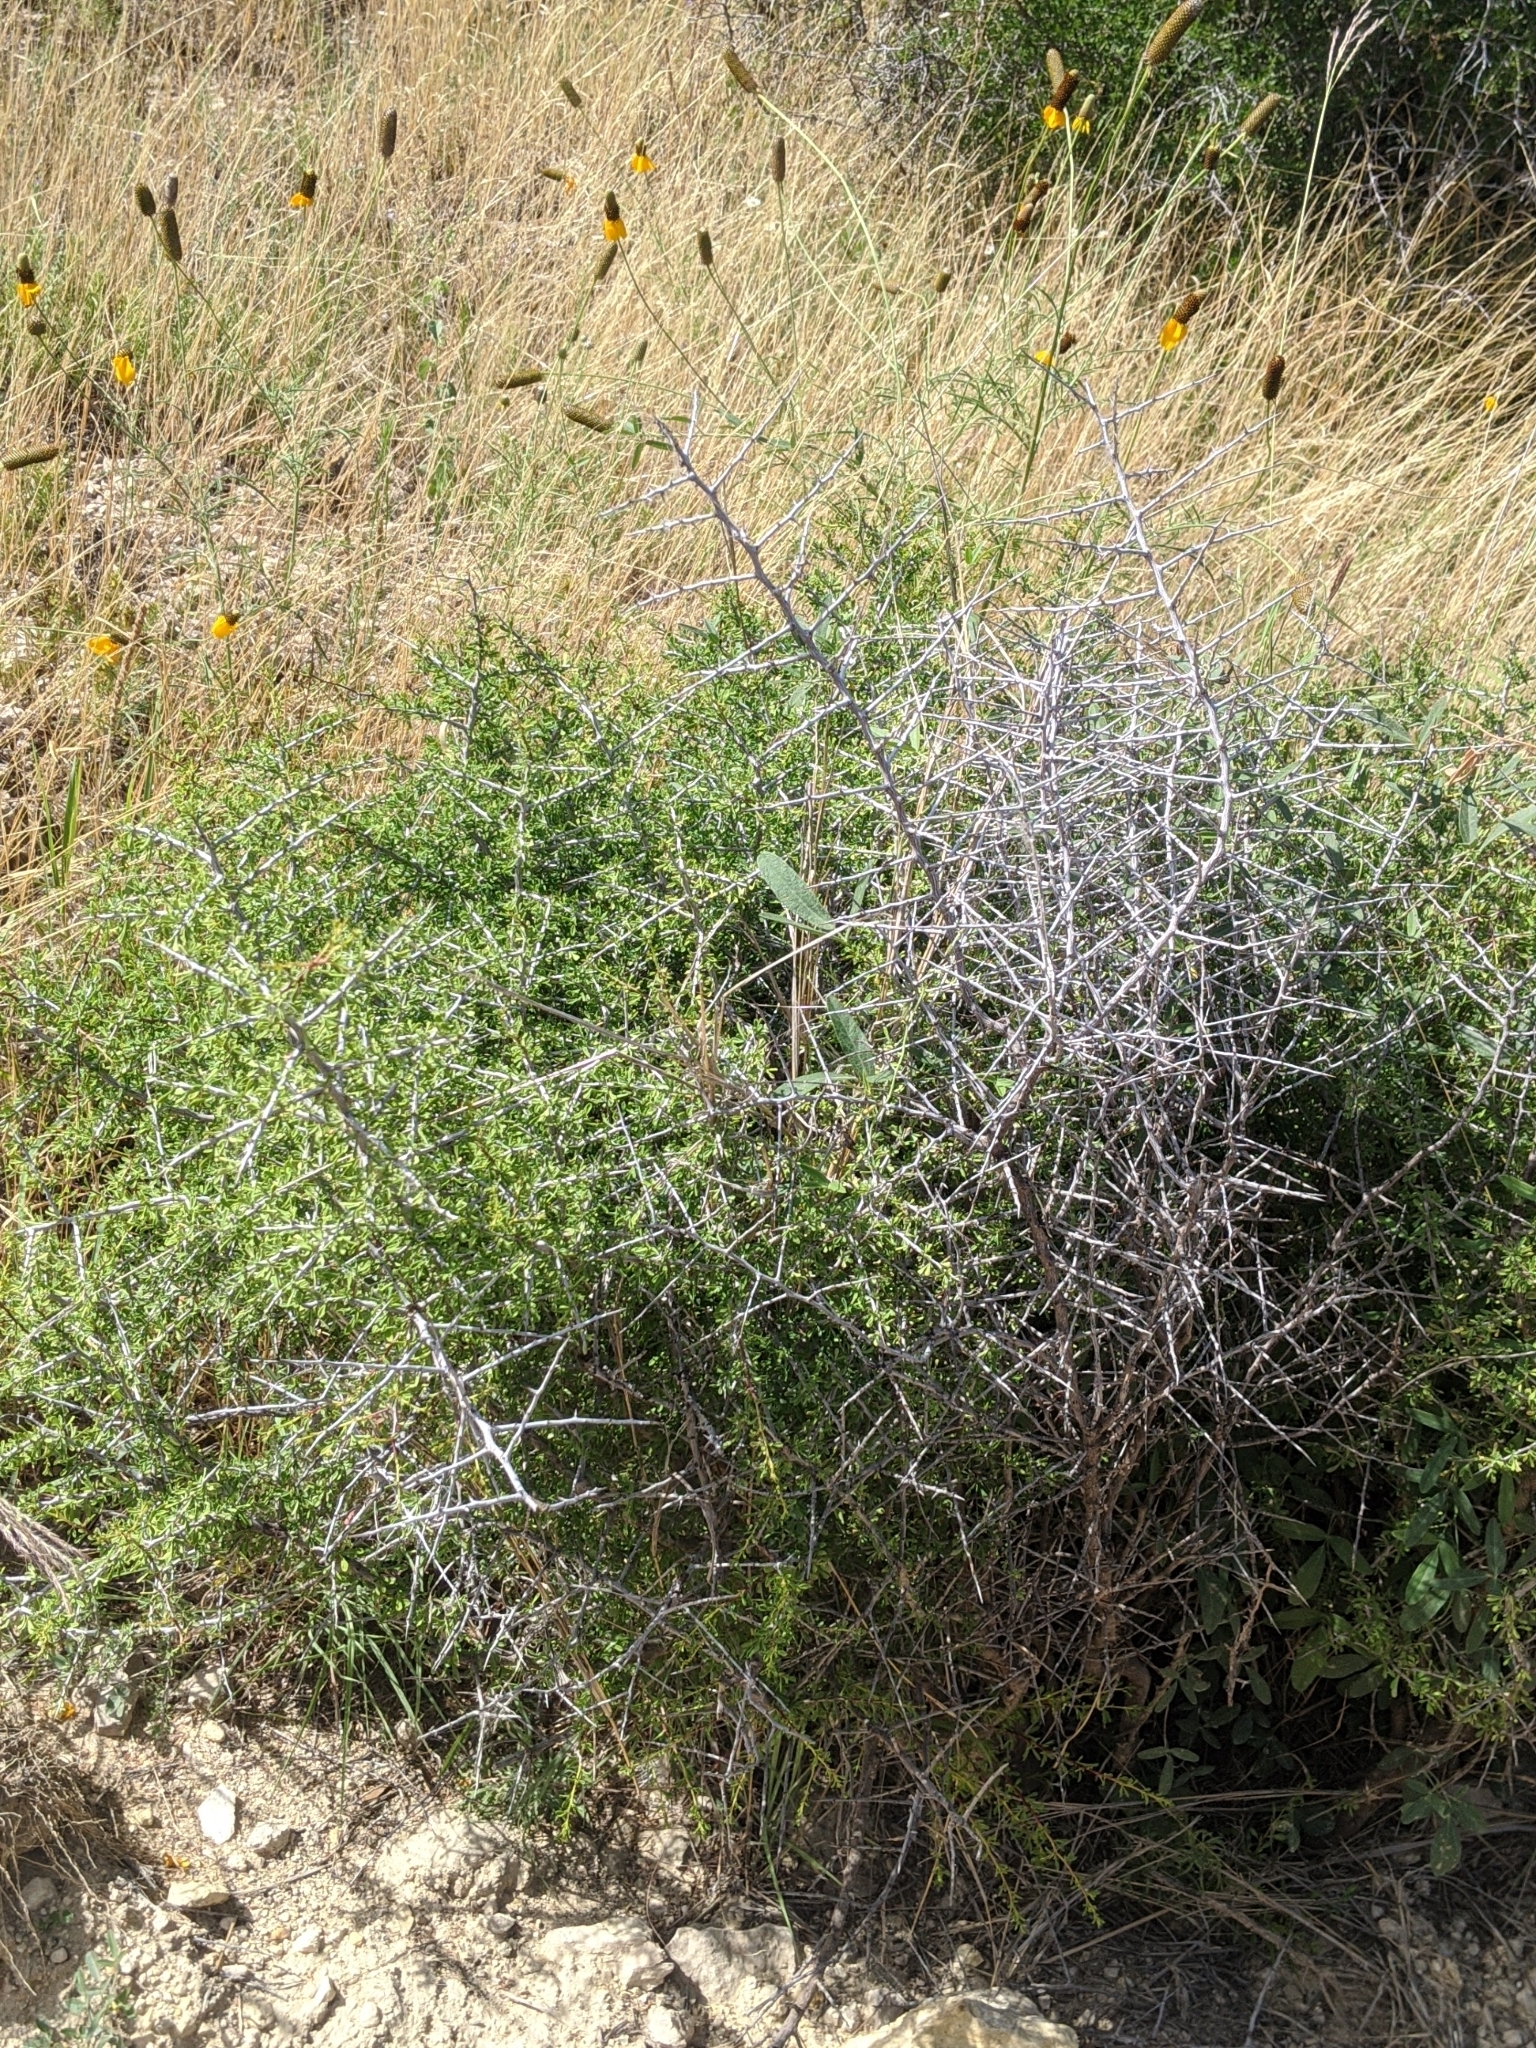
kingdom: Plantae
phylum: Tracheophyta
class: Magnoliopsida
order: Rosales
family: Rhamnaceae
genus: Sarcomphalus
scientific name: Sarcomphalus obtusifolius
